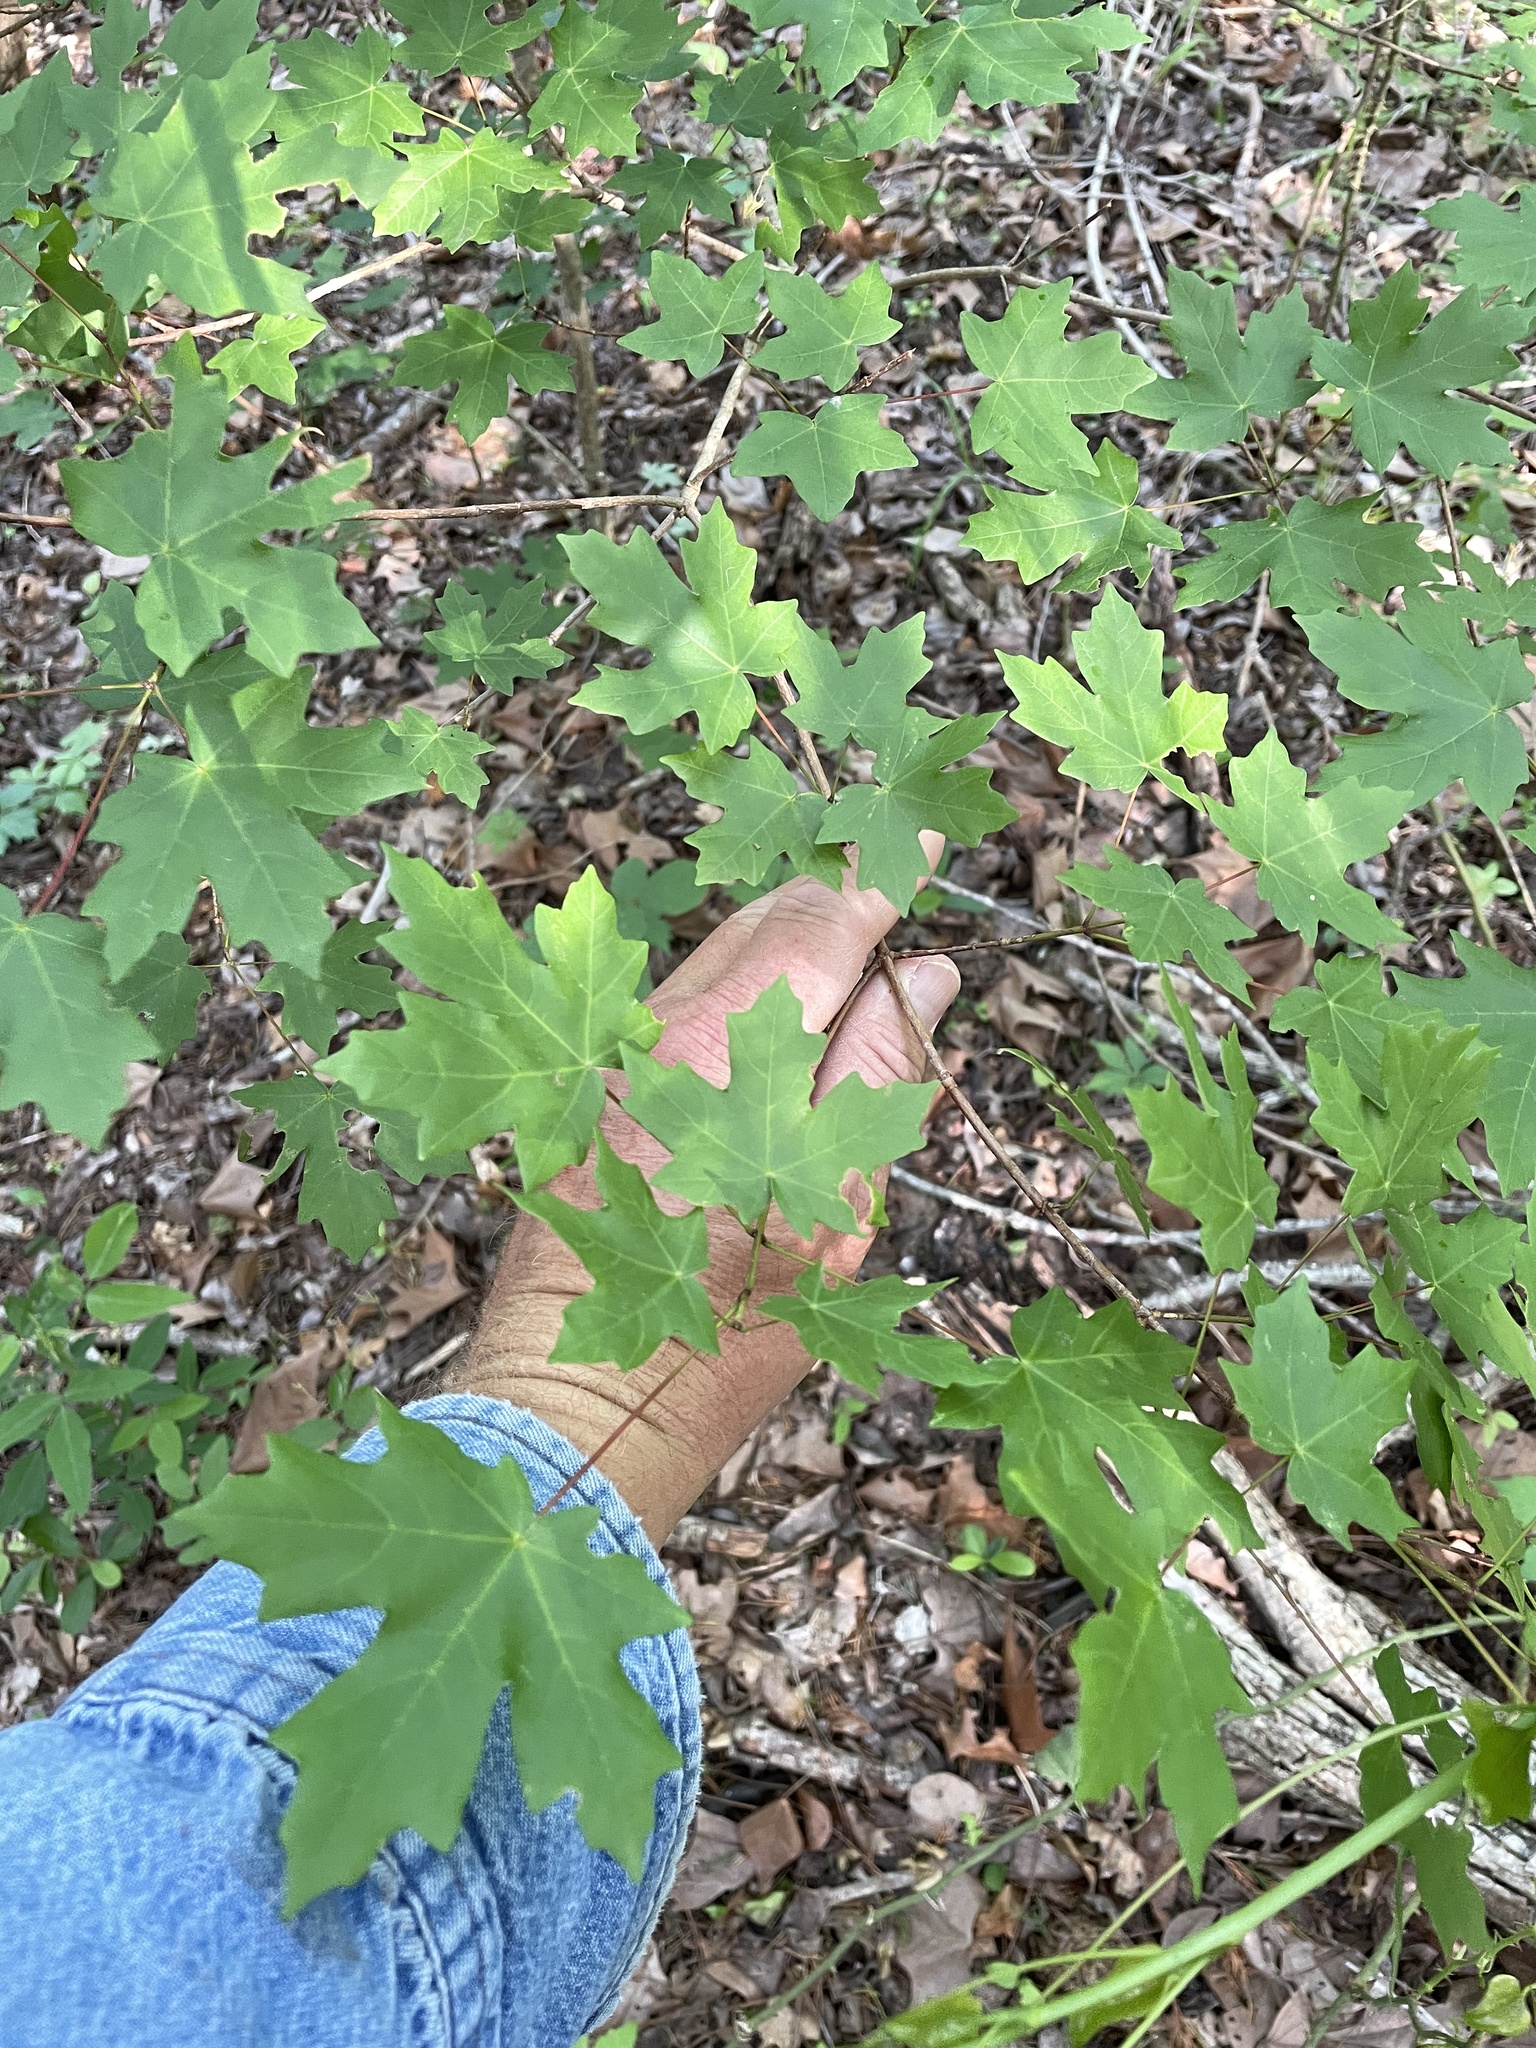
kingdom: Plantae
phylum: Tracheophyta
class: Magnoliopsida
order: Sapindales
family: Sapindaceae
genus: Acer
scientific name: Acer grandidentatum
